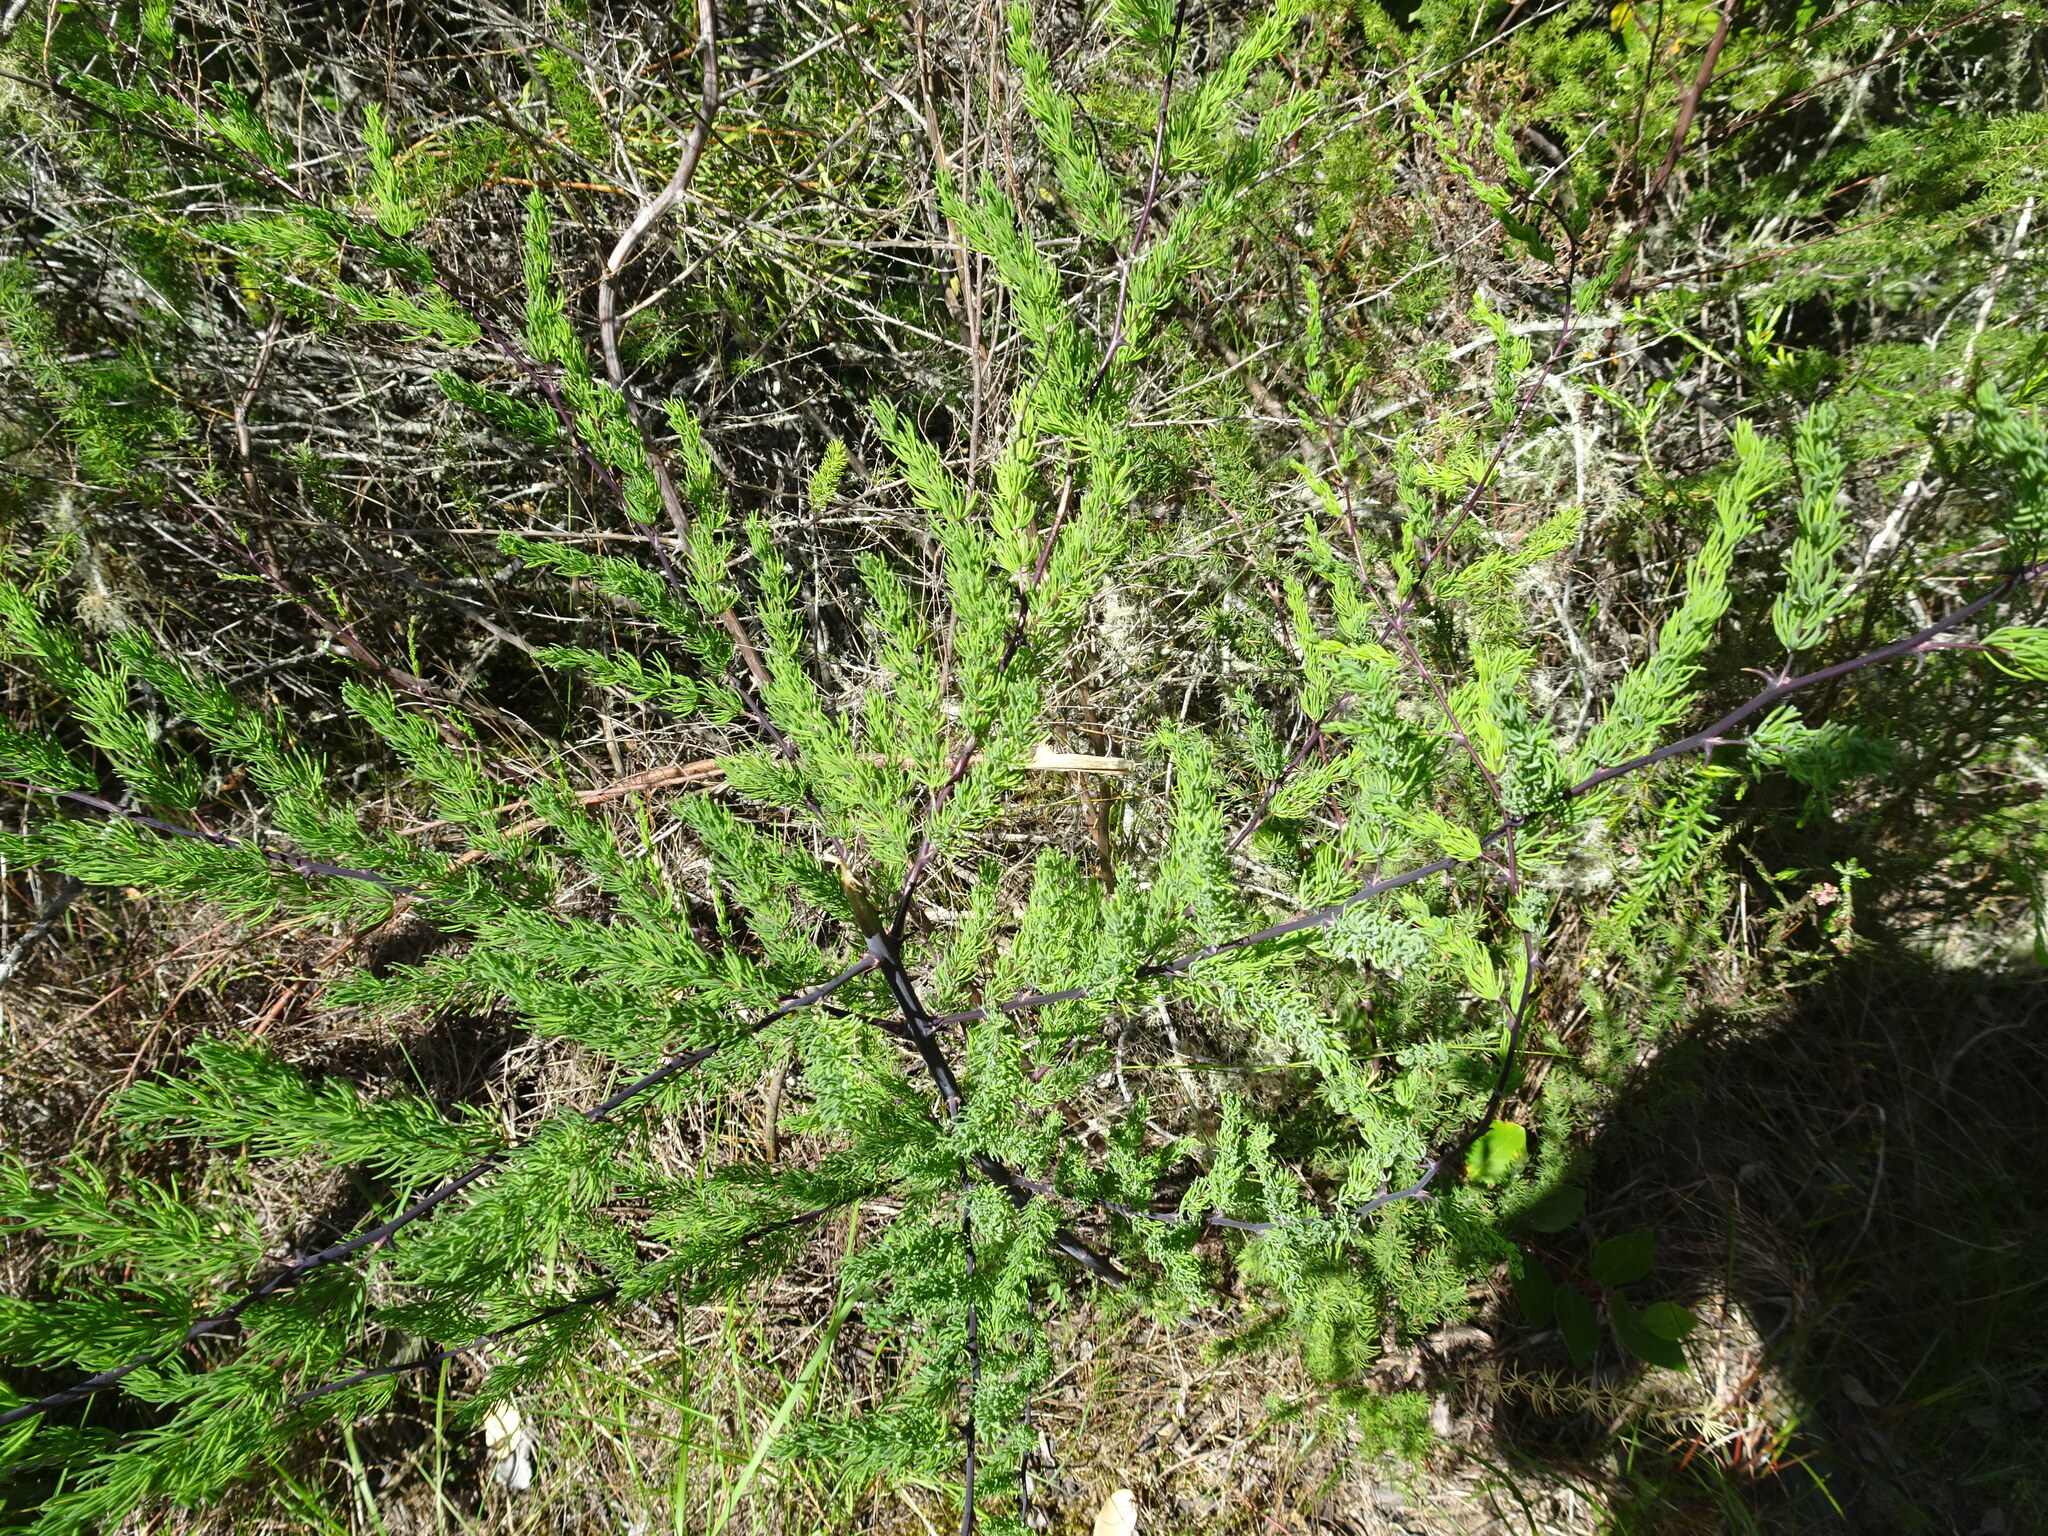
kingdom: Plantae
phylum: Tracheophyta
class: Liliopsida
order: Asparagales
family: Asparagaceae
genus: Asparagus
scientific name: Asparagus rubicundus
